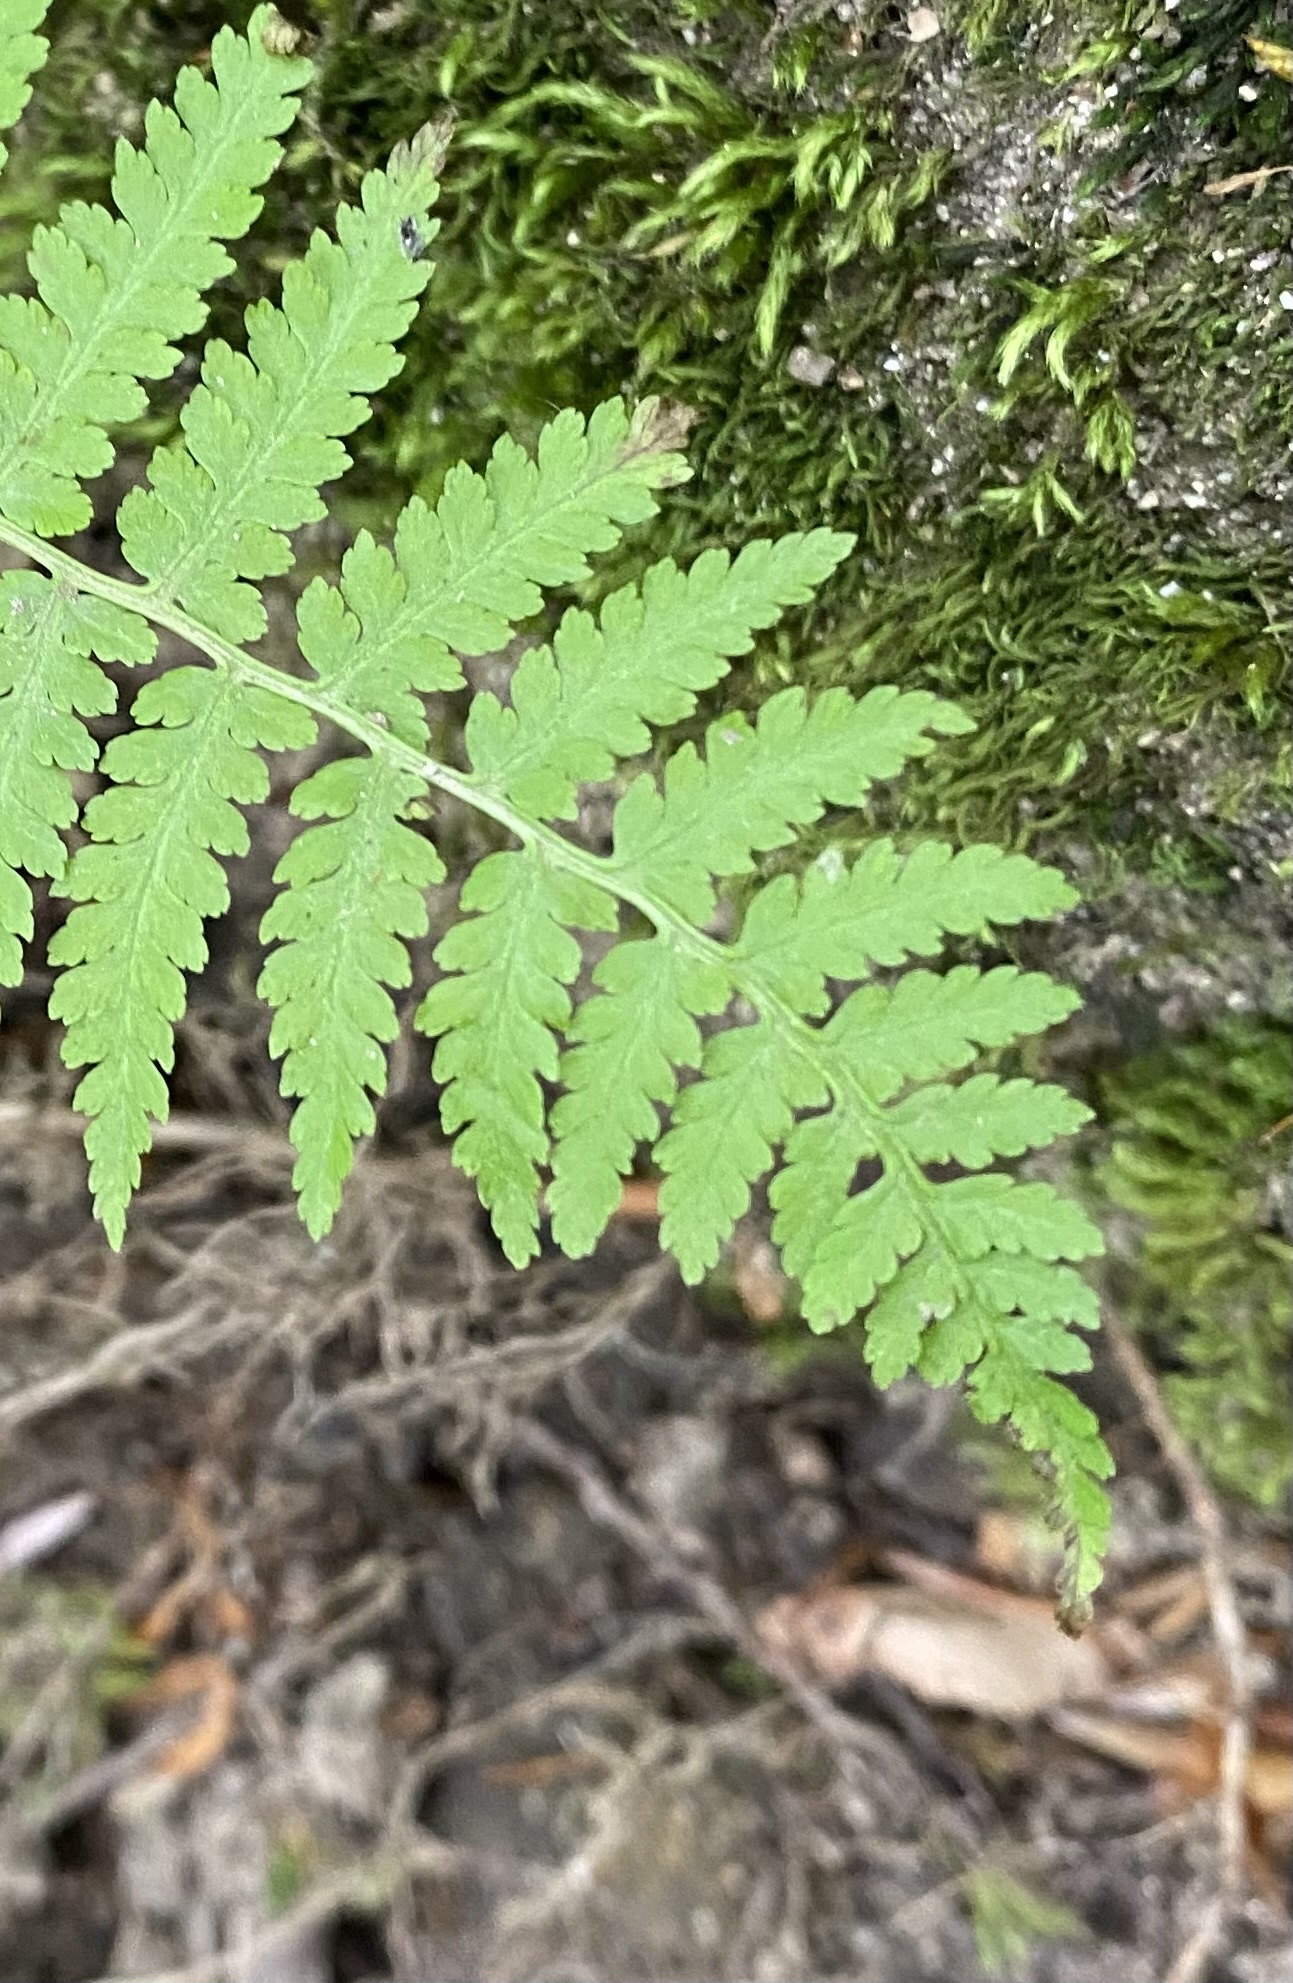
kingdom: Plantae
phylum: Tracheophyta
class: Polypodiopsida
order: Polypodiales
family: Athyriaceae
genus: Athyrium
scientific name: Athyrium filix-femina
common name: Lady fern
